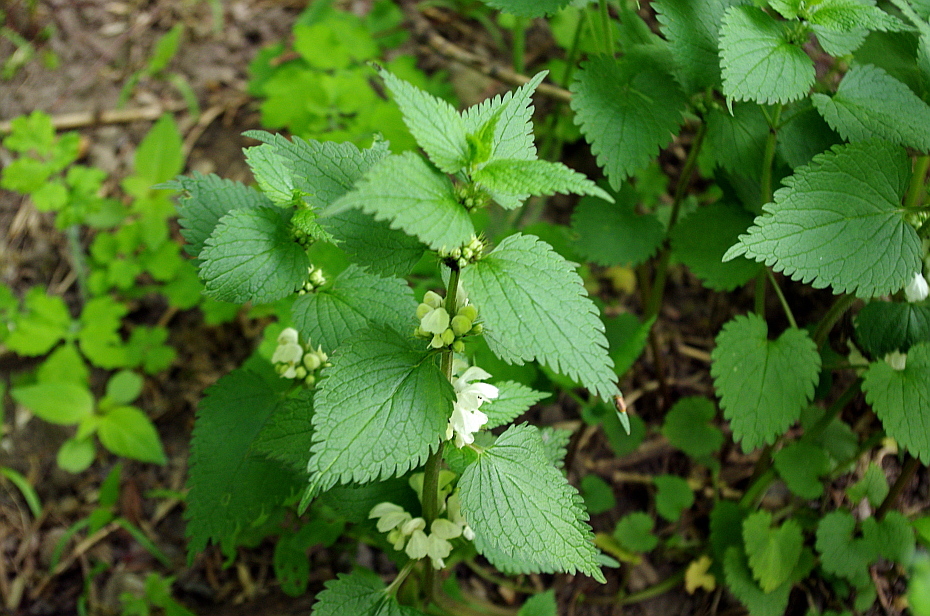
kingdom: Plantae
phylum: Tracheophyta
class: Magnoliopsida
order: Lamiales
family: Lamiaceae
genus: Lamium
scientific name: Lamium album
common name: White dead-nettle
